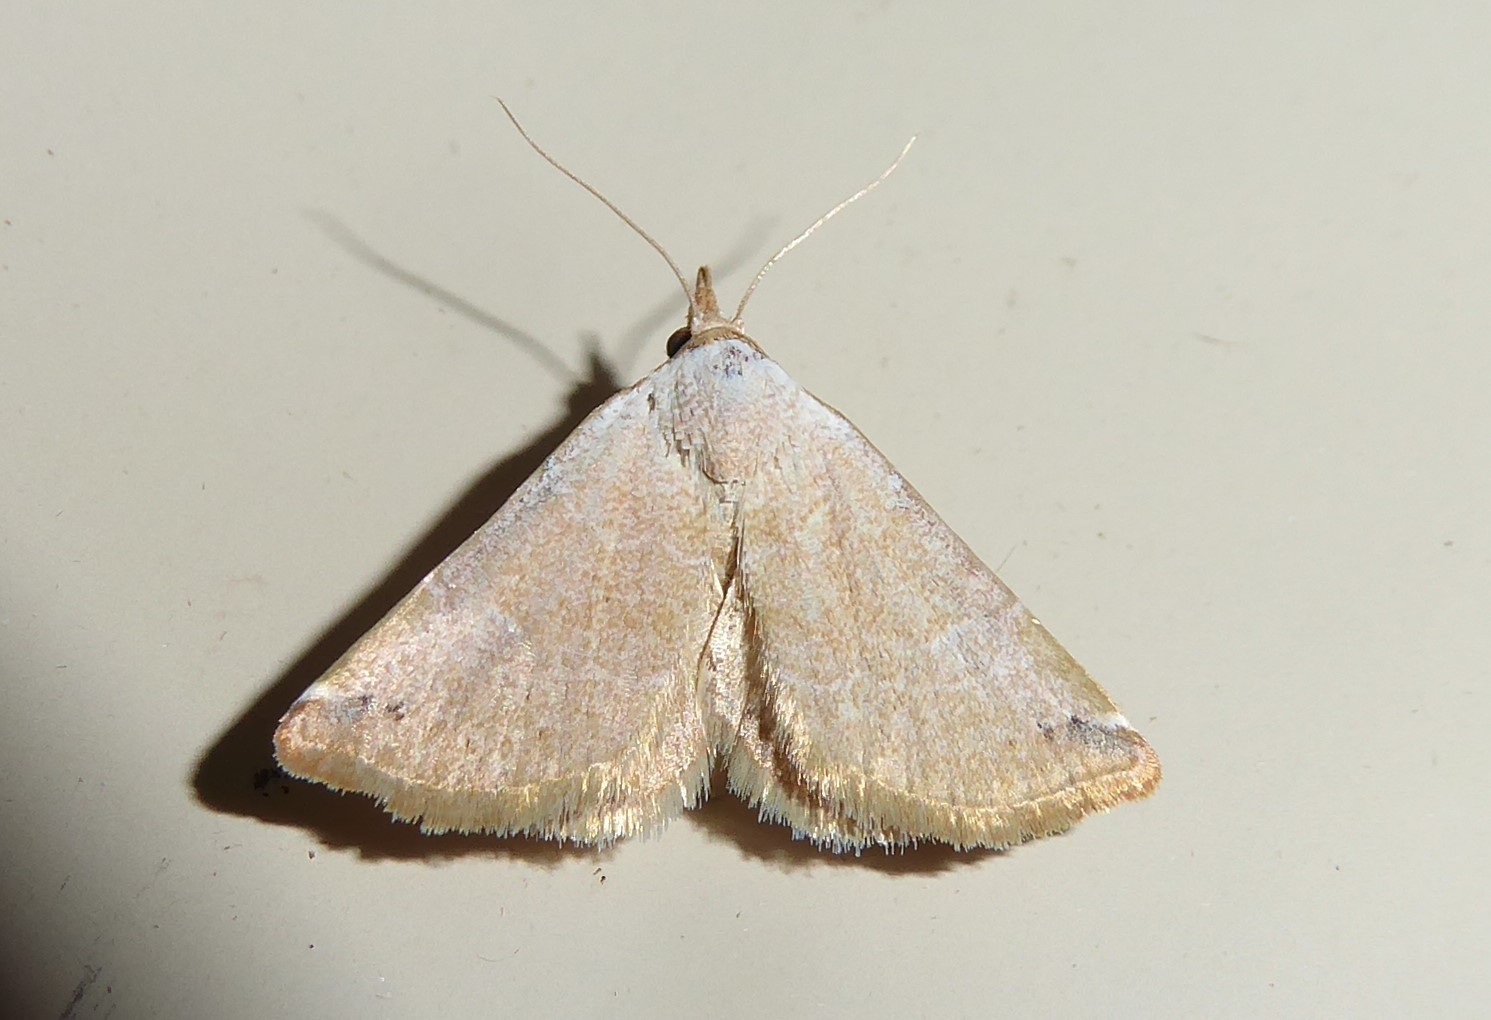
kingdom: Animalia
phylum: Arthropoda
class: Insecta
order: Lepidoptera
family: Noctuidae
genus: Mataeomera
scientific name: Mataeomera ligata
